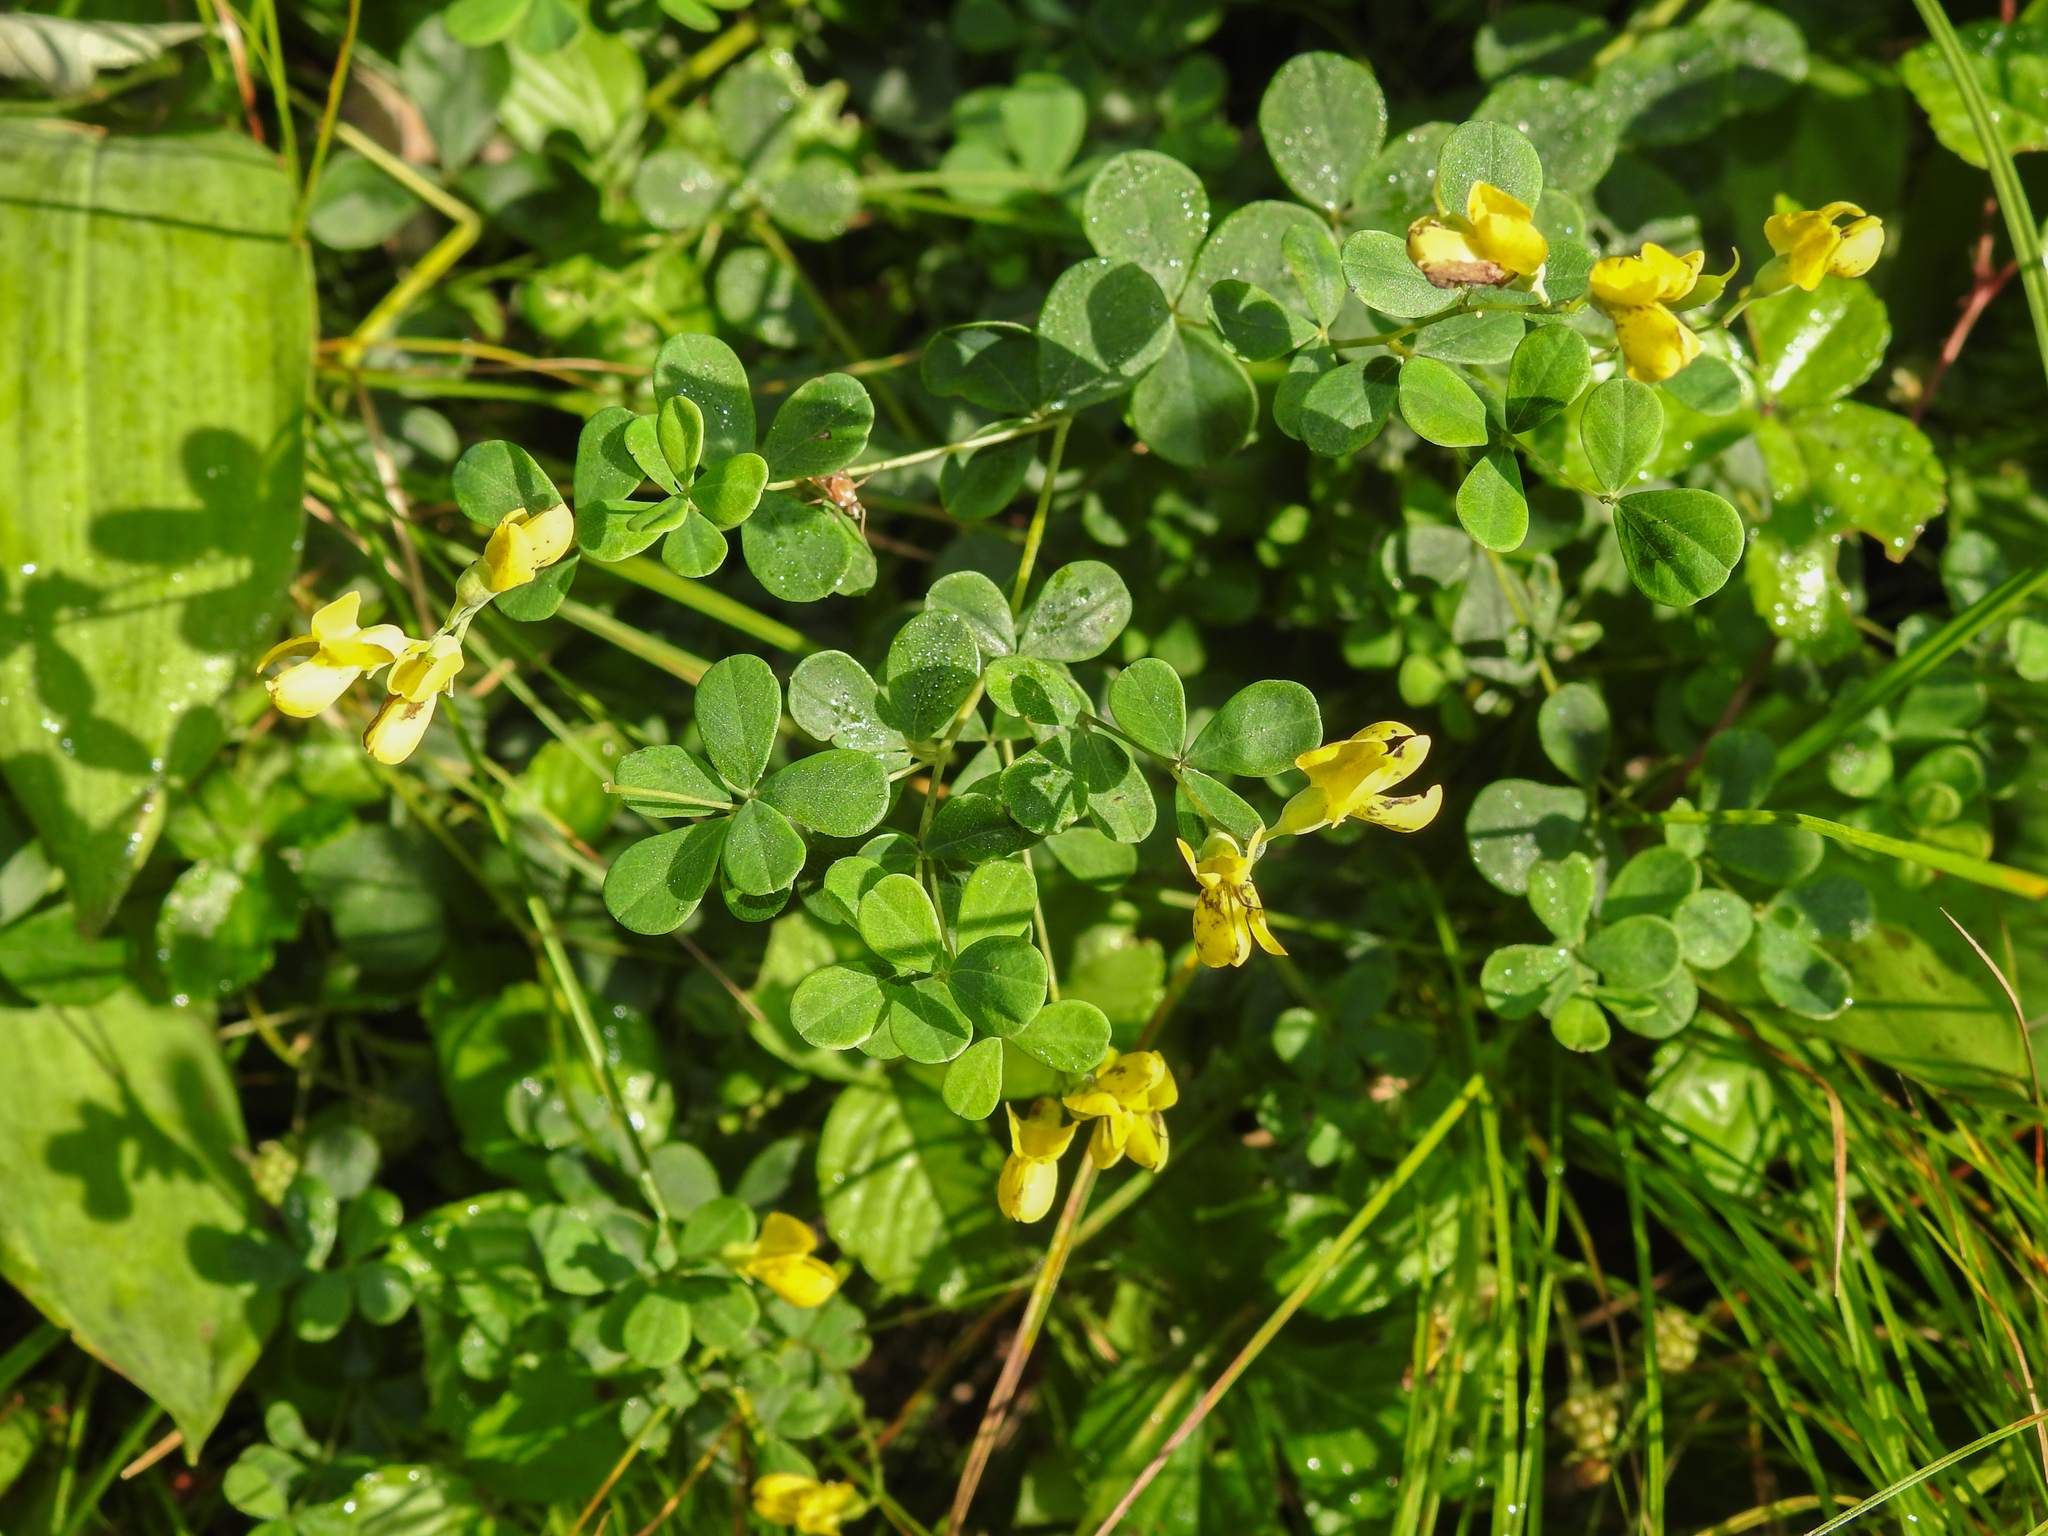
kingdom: Plantae
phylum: Tracheophyta
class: Magnoliopsida
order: Fabales
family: Fabaceae
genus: Baptisia
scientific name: Baptisia tinctoria
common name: Wild indigo
